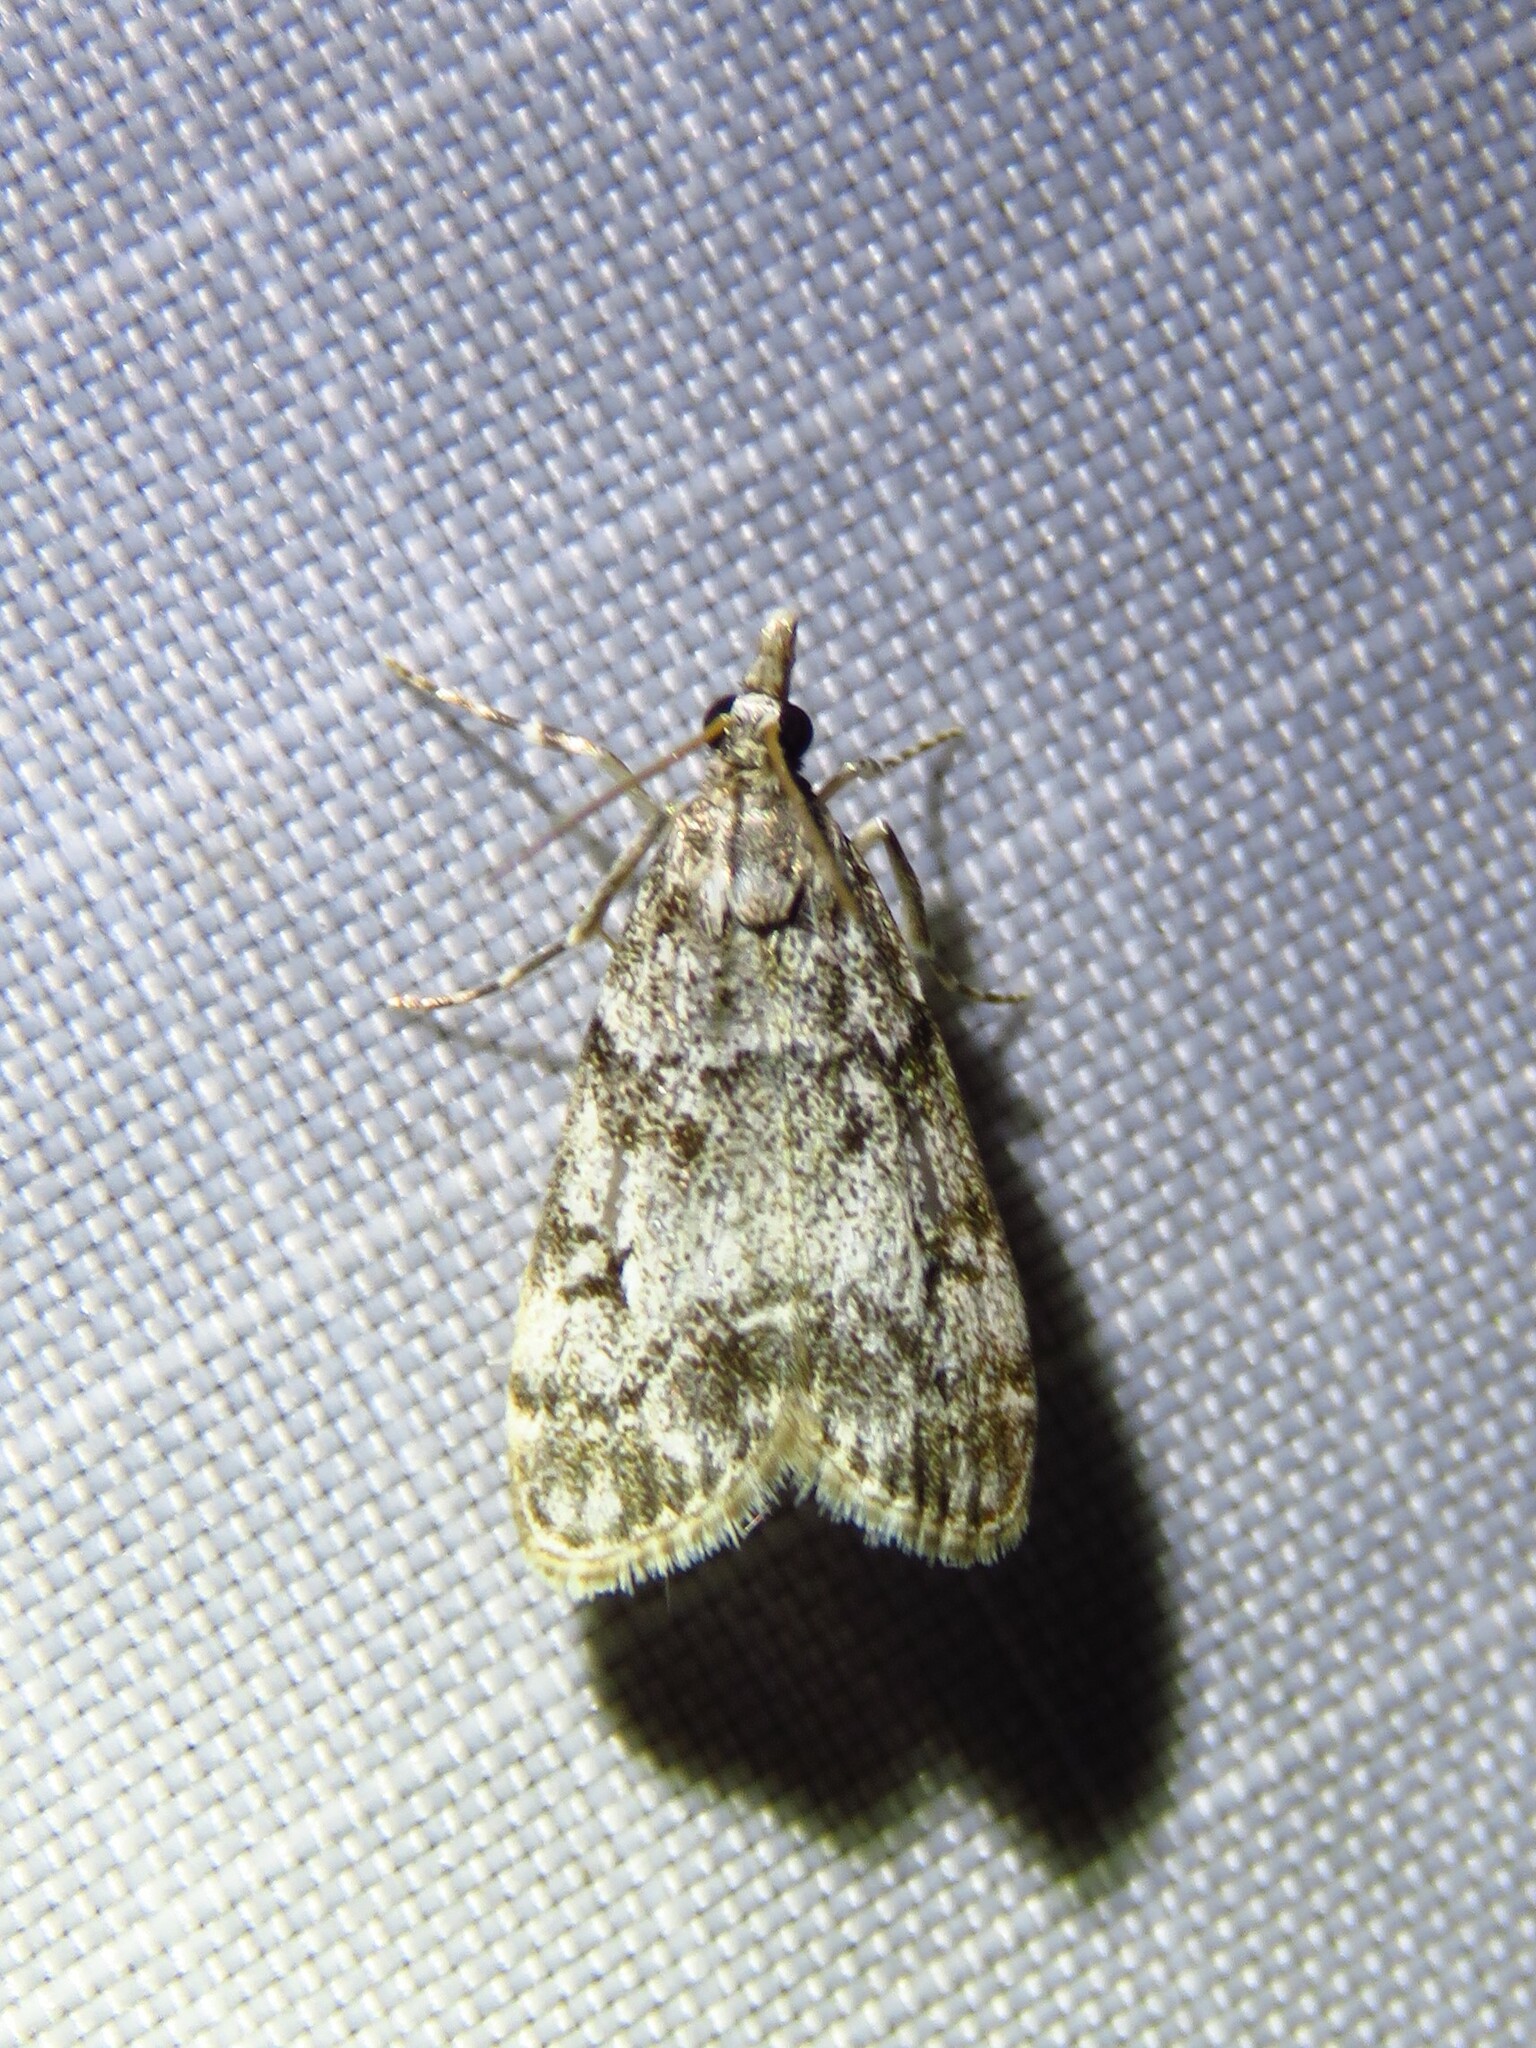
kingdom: Animalia
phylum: Arthropoda
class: Insecta
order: Lepidoptera
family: Crambidae
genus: Eudonia
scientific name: Eudonia lacustrata
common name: Little grey
